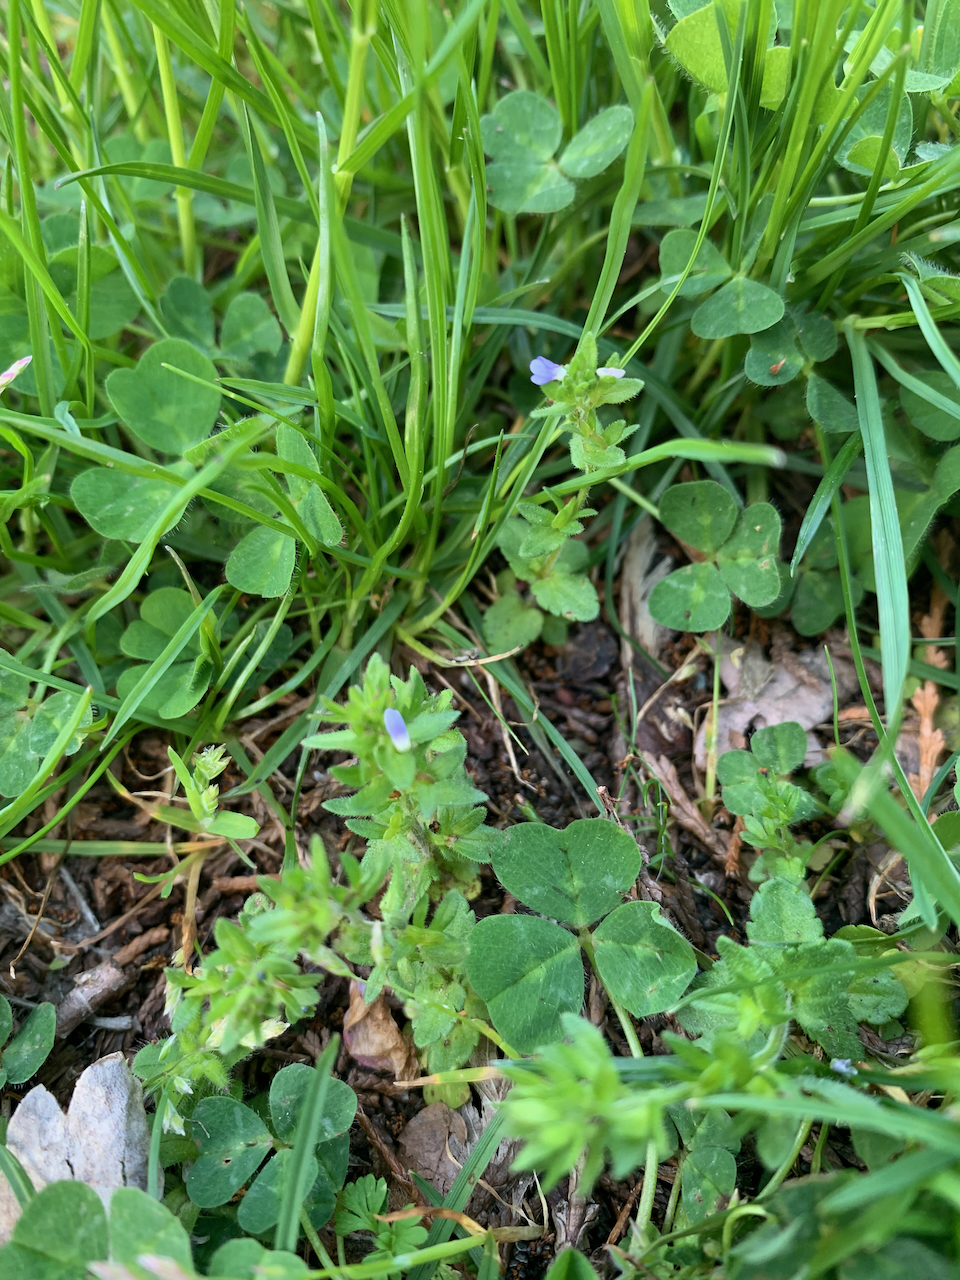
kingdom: Plantae
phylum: Tracheophyta
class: Magnoliopsida
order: Lamiales
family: Plantaginaceae
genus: Veronica
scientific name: Veronica arvensis
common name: Corn speedwell
